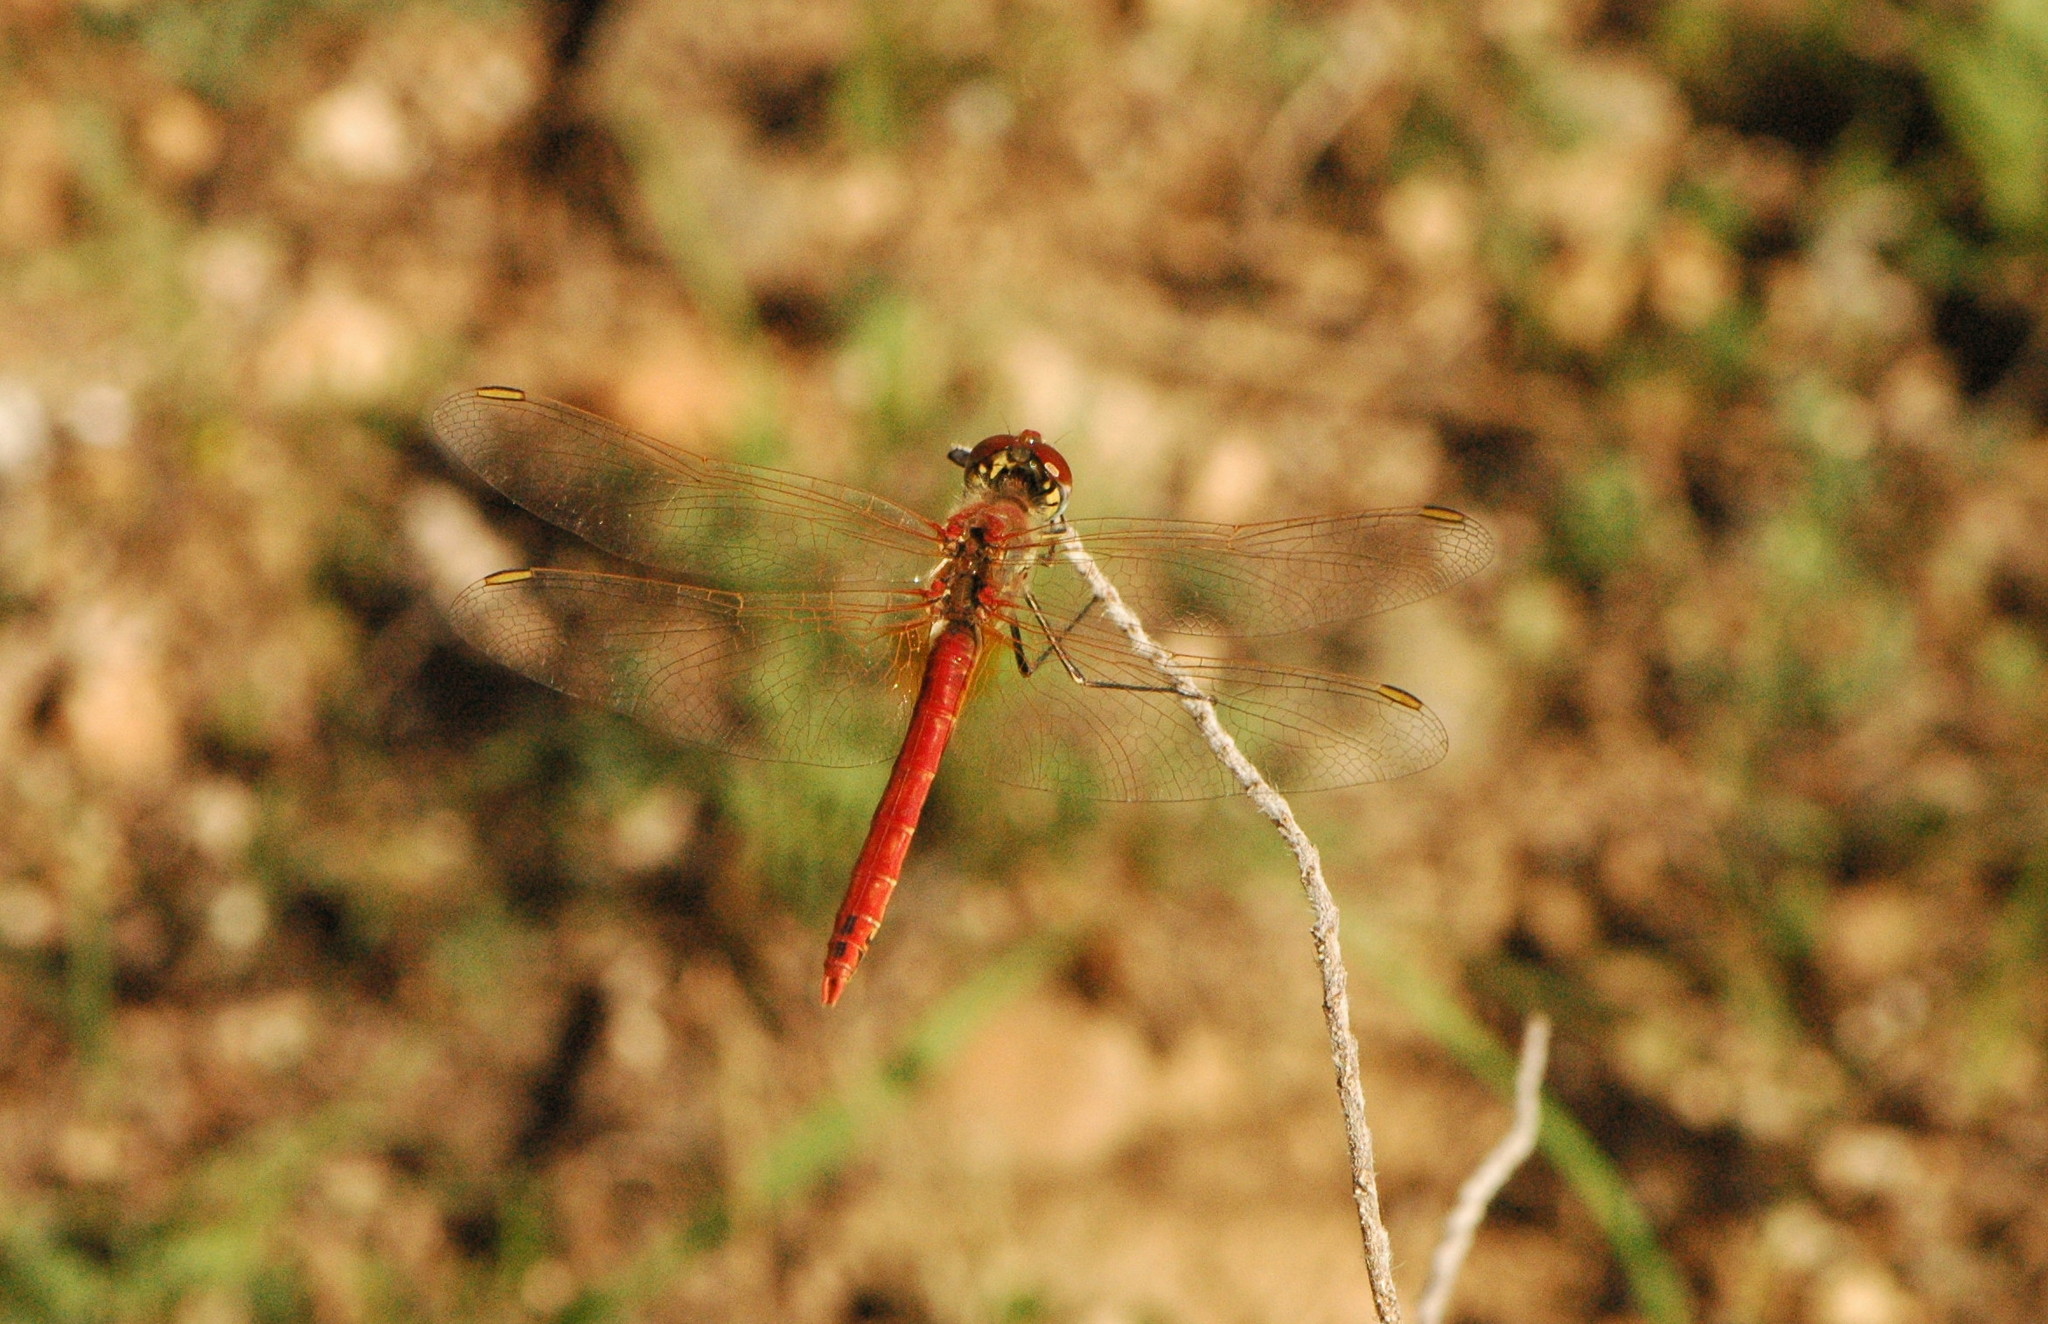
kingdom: Animalia
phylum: Arthropoda
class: Insecta
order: Odonata
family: Libellulidae
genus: Sympetrum
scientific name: Sympetrum fonscolombii
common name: Red-veined darter
